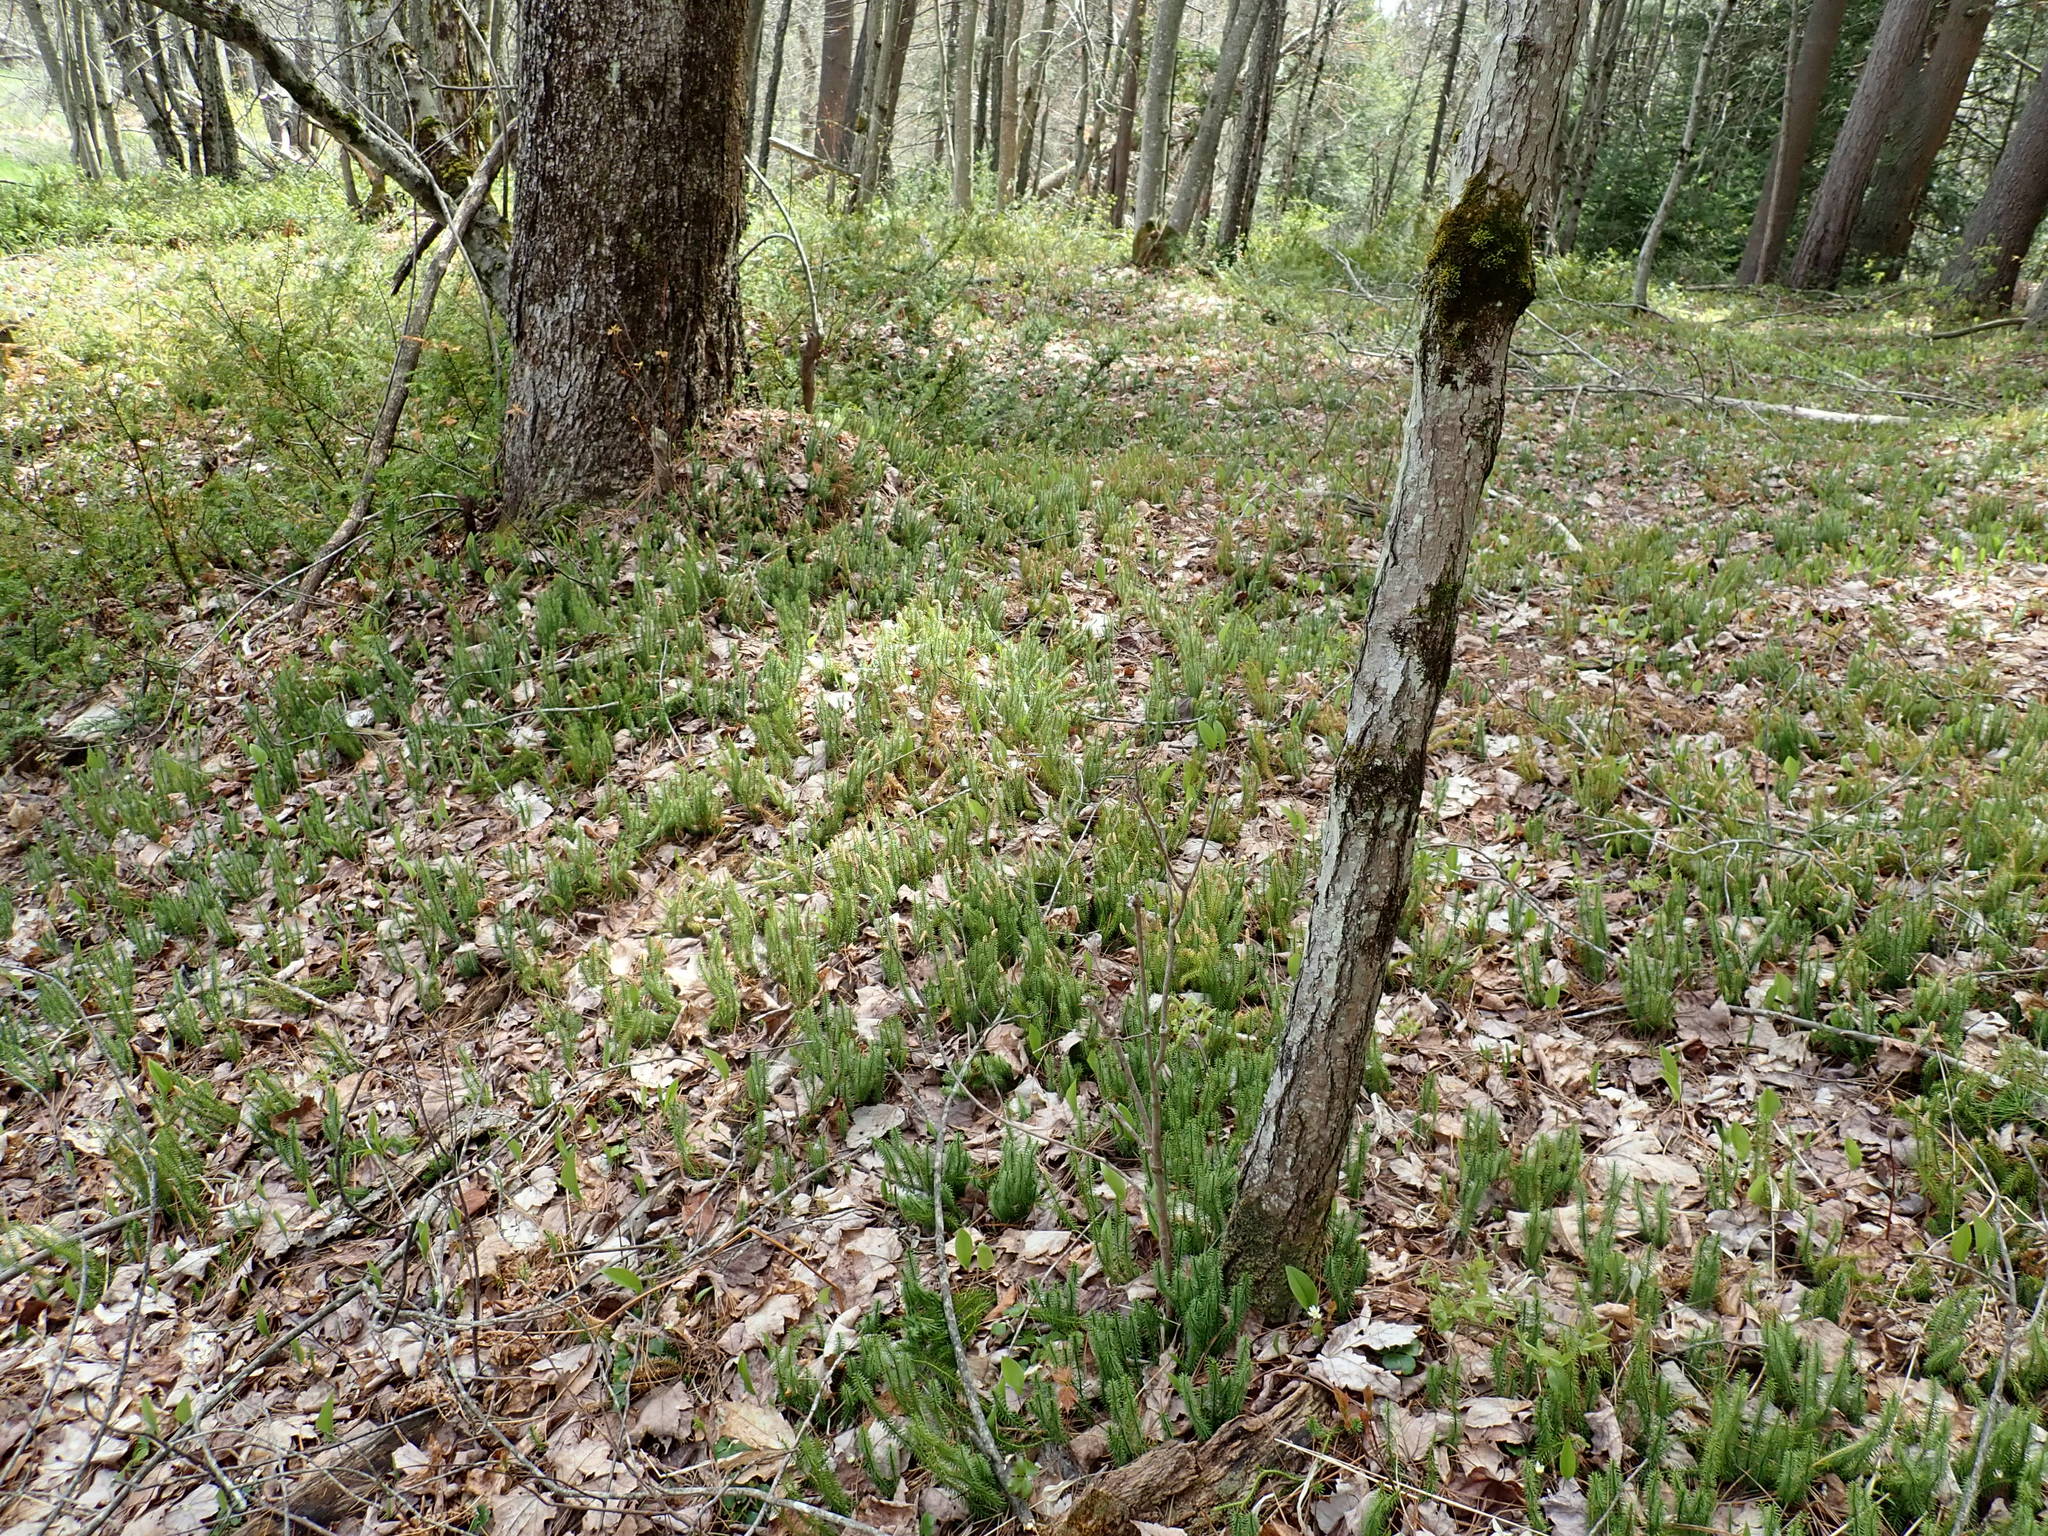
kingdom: Plantae
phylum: Tracheophyta
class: Lycopodiopsida
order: Lycopodiales
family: Lycopodiaceae
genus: Spinulum
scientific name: Spinulum annotinum
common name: Interrupted club-moss
